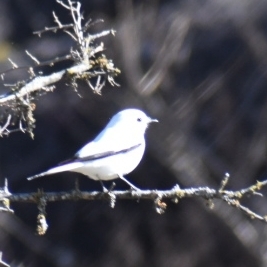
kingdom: Animalia
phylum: Chordata
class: Aves
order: Passeriformes
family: Tyrannidae
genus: Xolmis
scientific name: Xolmis irupero
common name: White monjita
